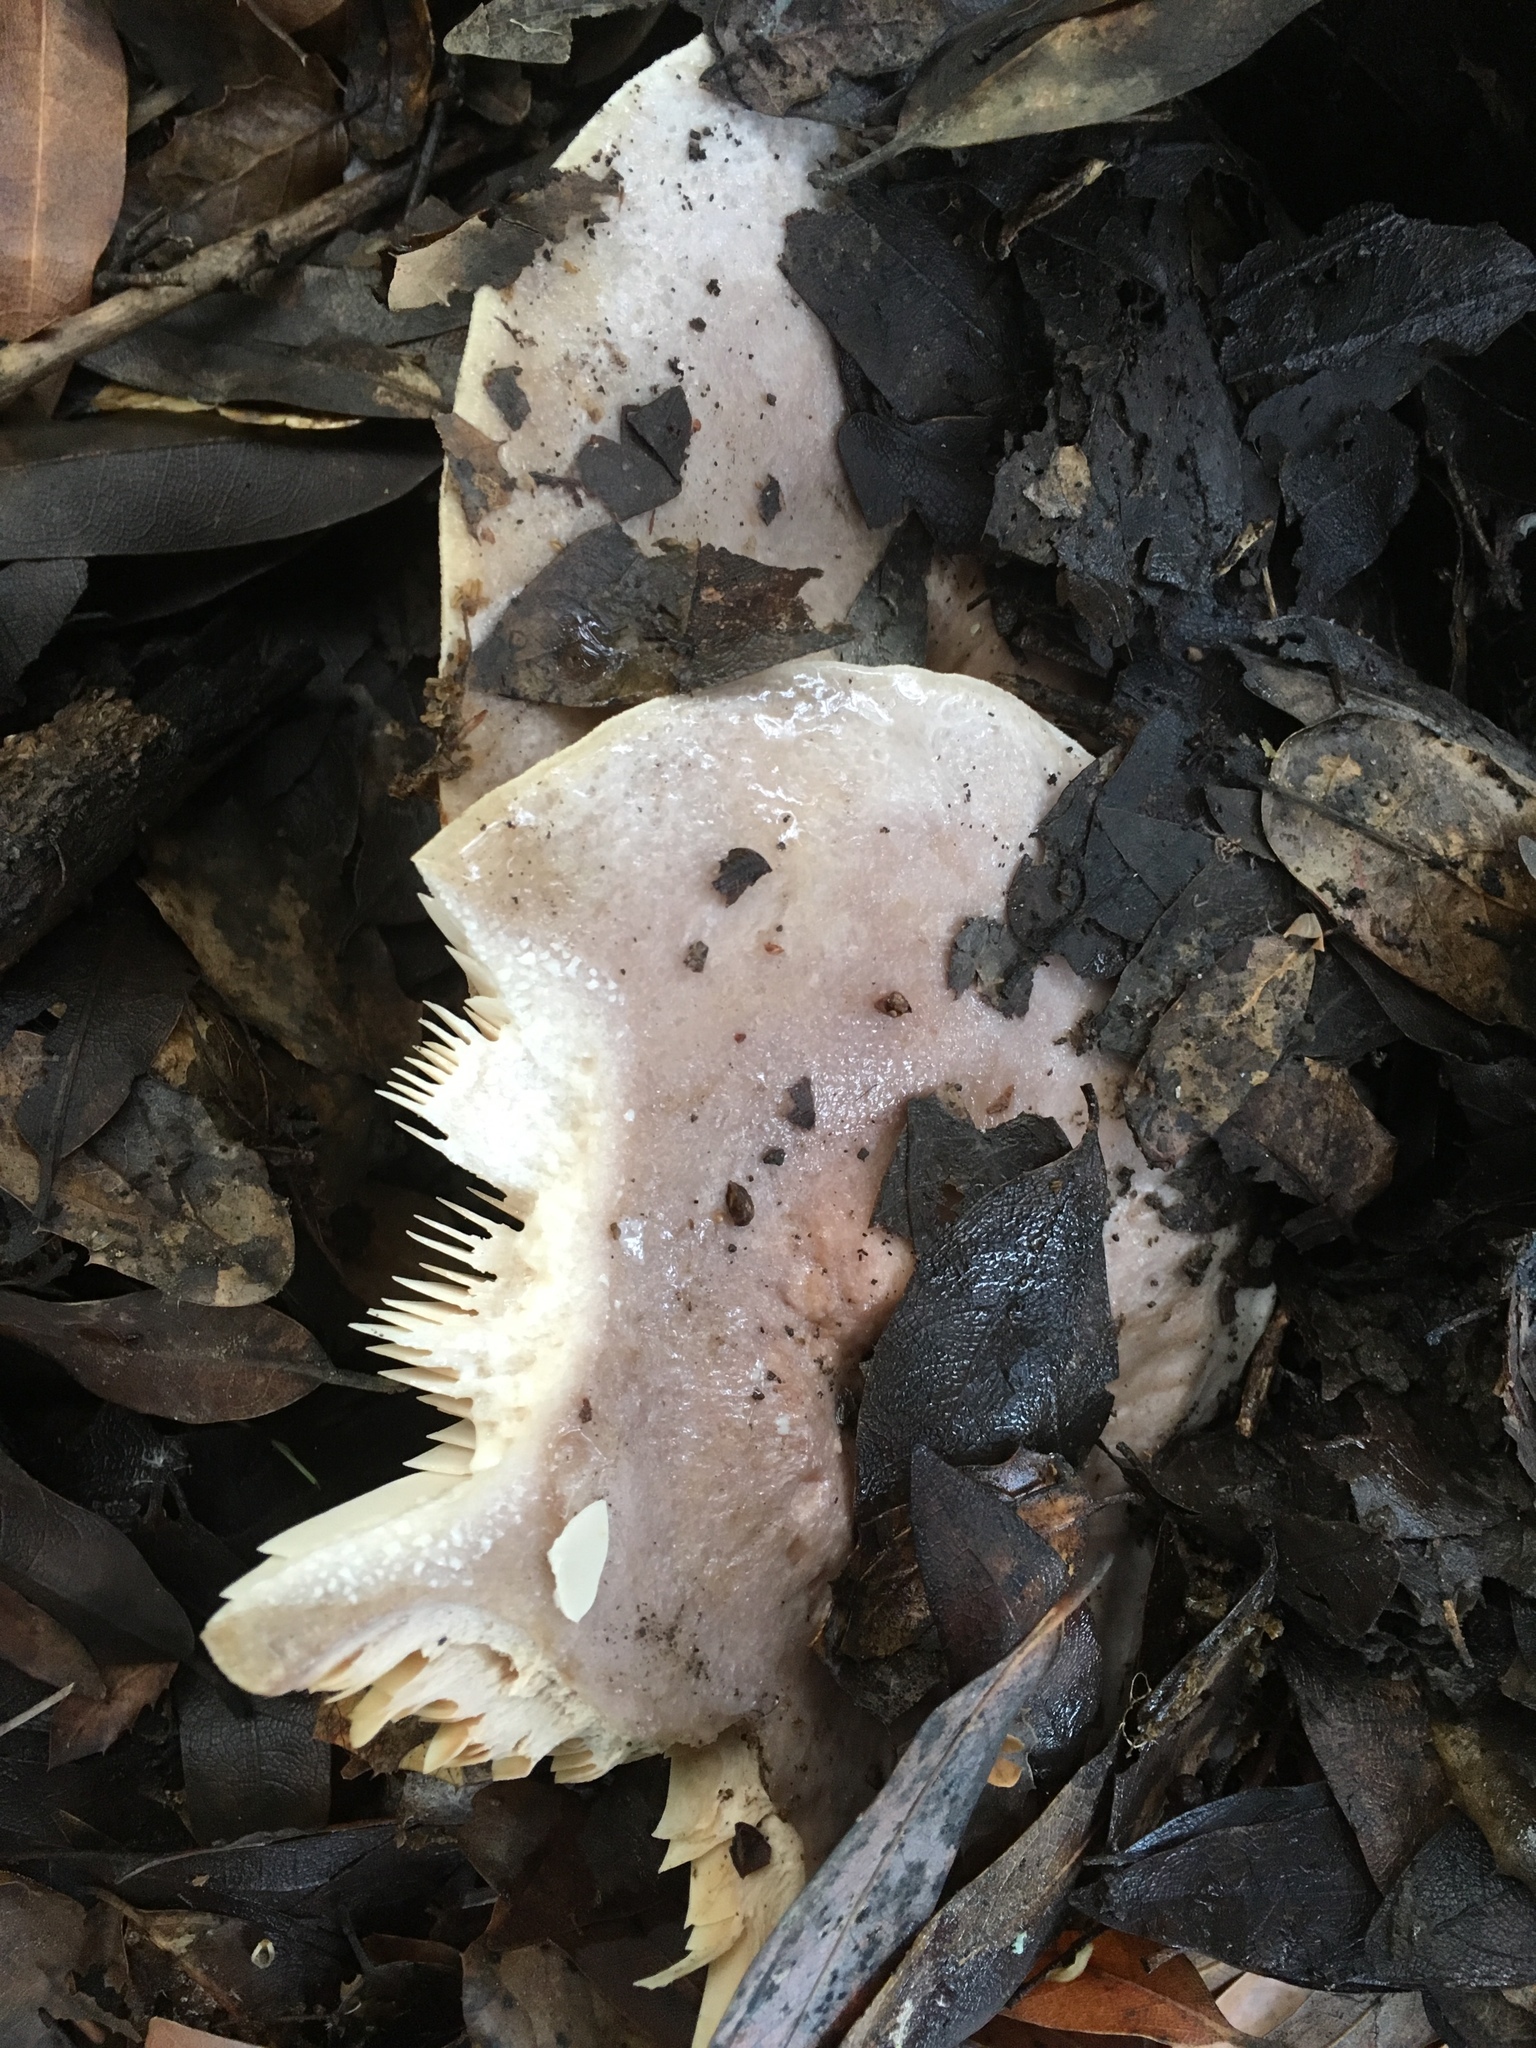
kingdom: Fungi
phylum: Basidiomycota
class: Agaricomycetes
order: Russulales
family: Russulaceae
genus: Lactarius
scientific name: Lactarius argillaceifolius
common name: Clay-gilled milkcap
